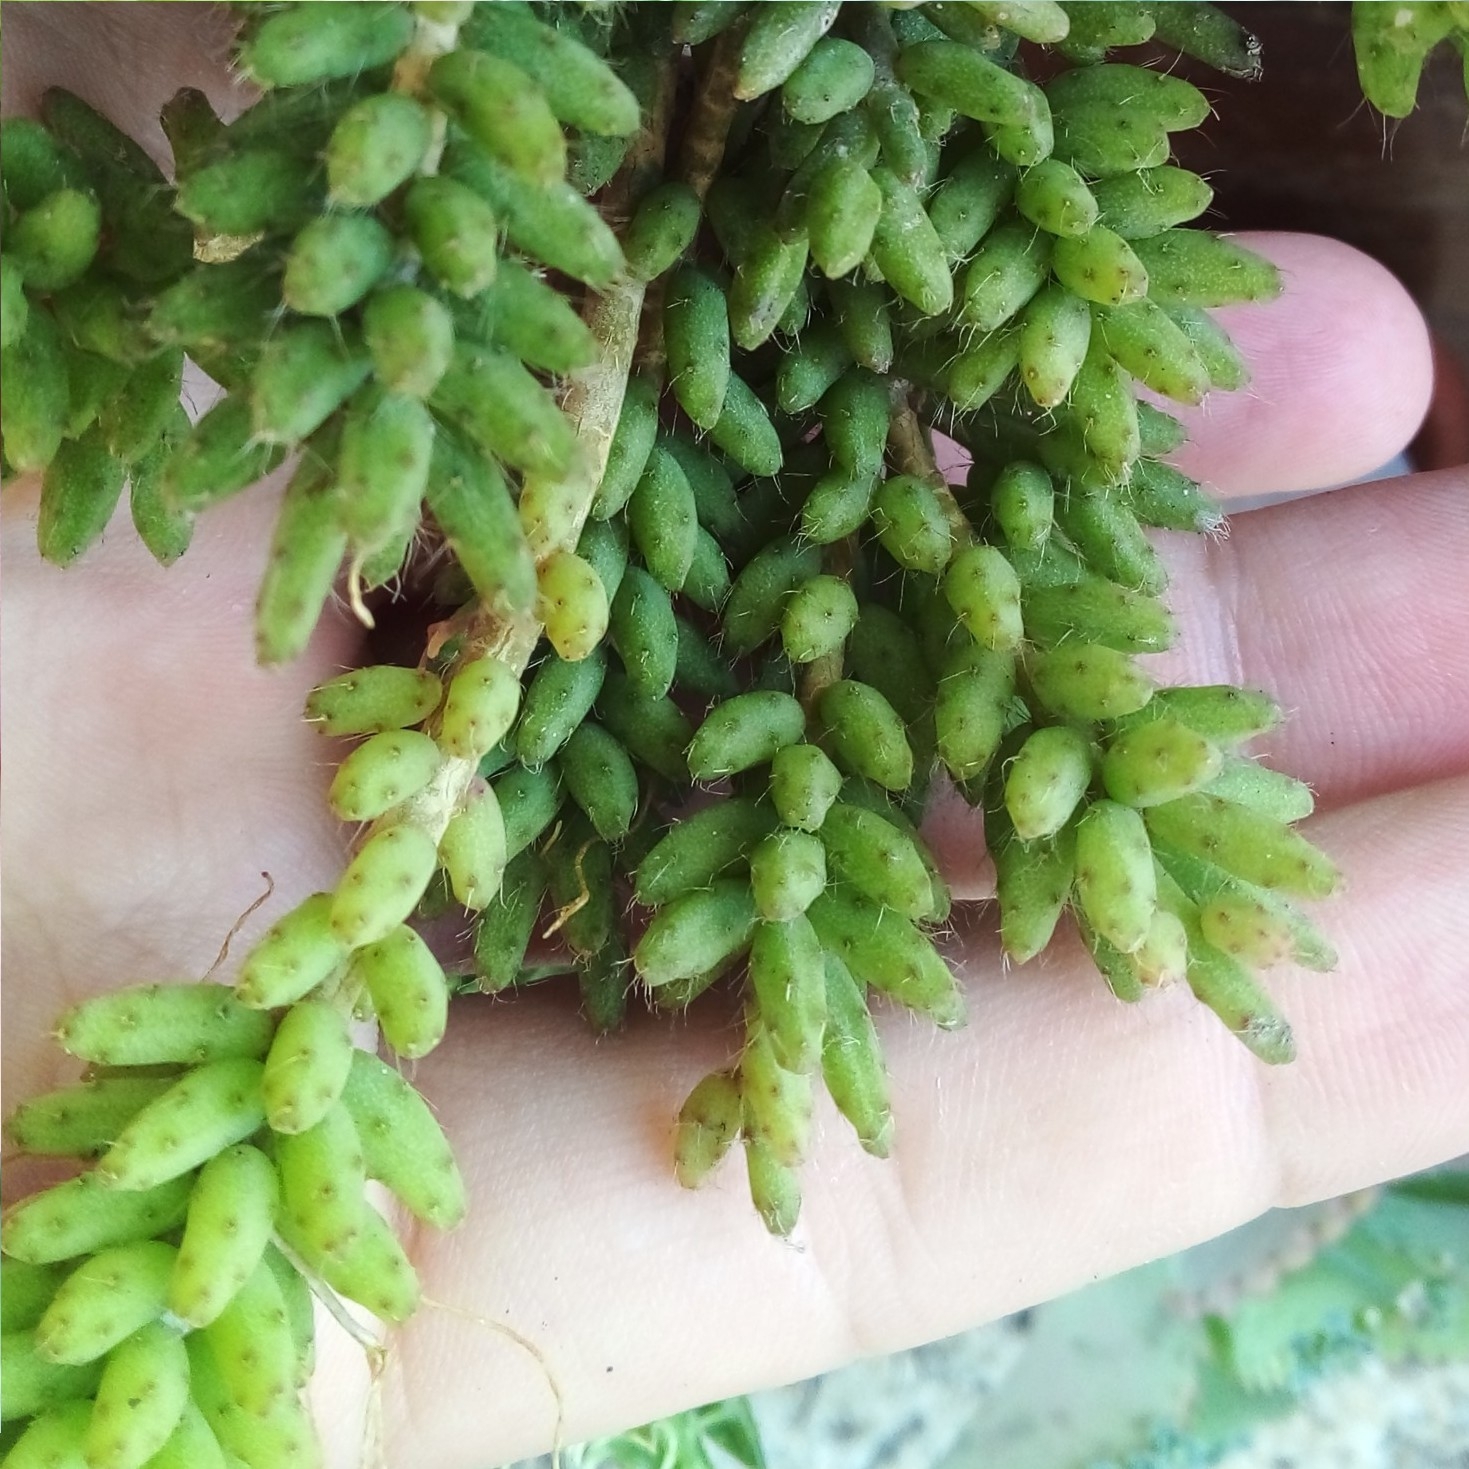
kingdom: Plantae
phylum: Tracheophyta
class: Magnoliopsida
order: Caryophyllales
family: Cactaceae
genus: Rhipsalis
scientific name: Rhipsalis mesembryanthemoides
